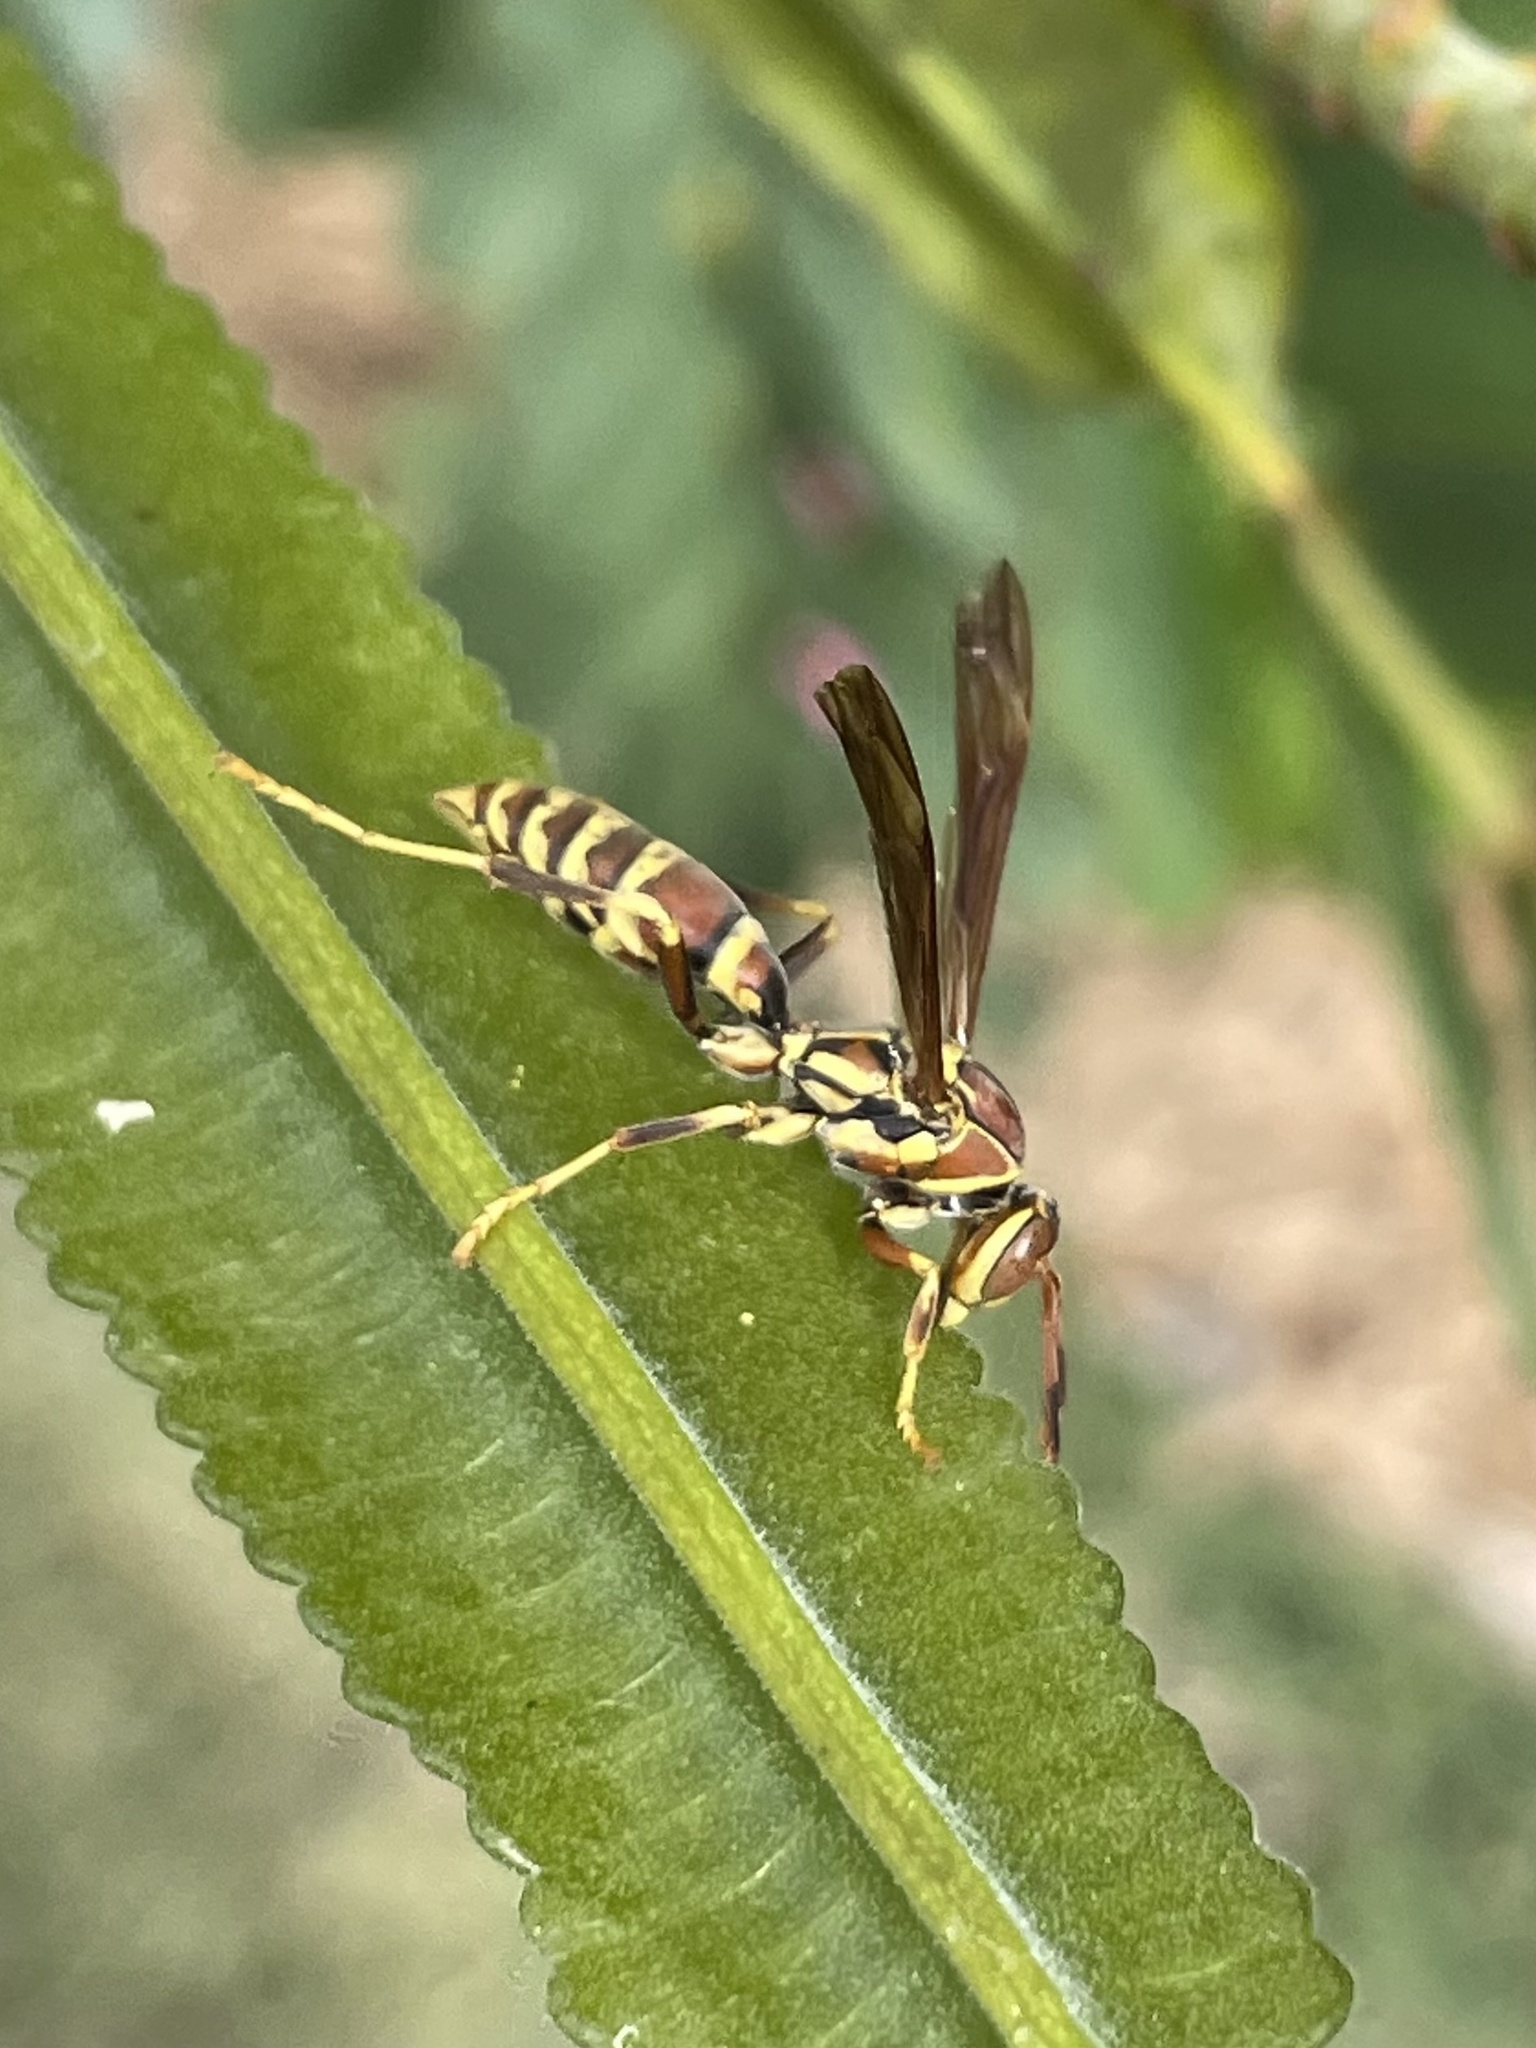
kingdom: Animalia
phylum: Arthropoda
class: Insecta
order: Hymenoptera
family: Eumenidae
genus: Polistes
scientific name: Polistes exclamans
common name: Paper wasp
